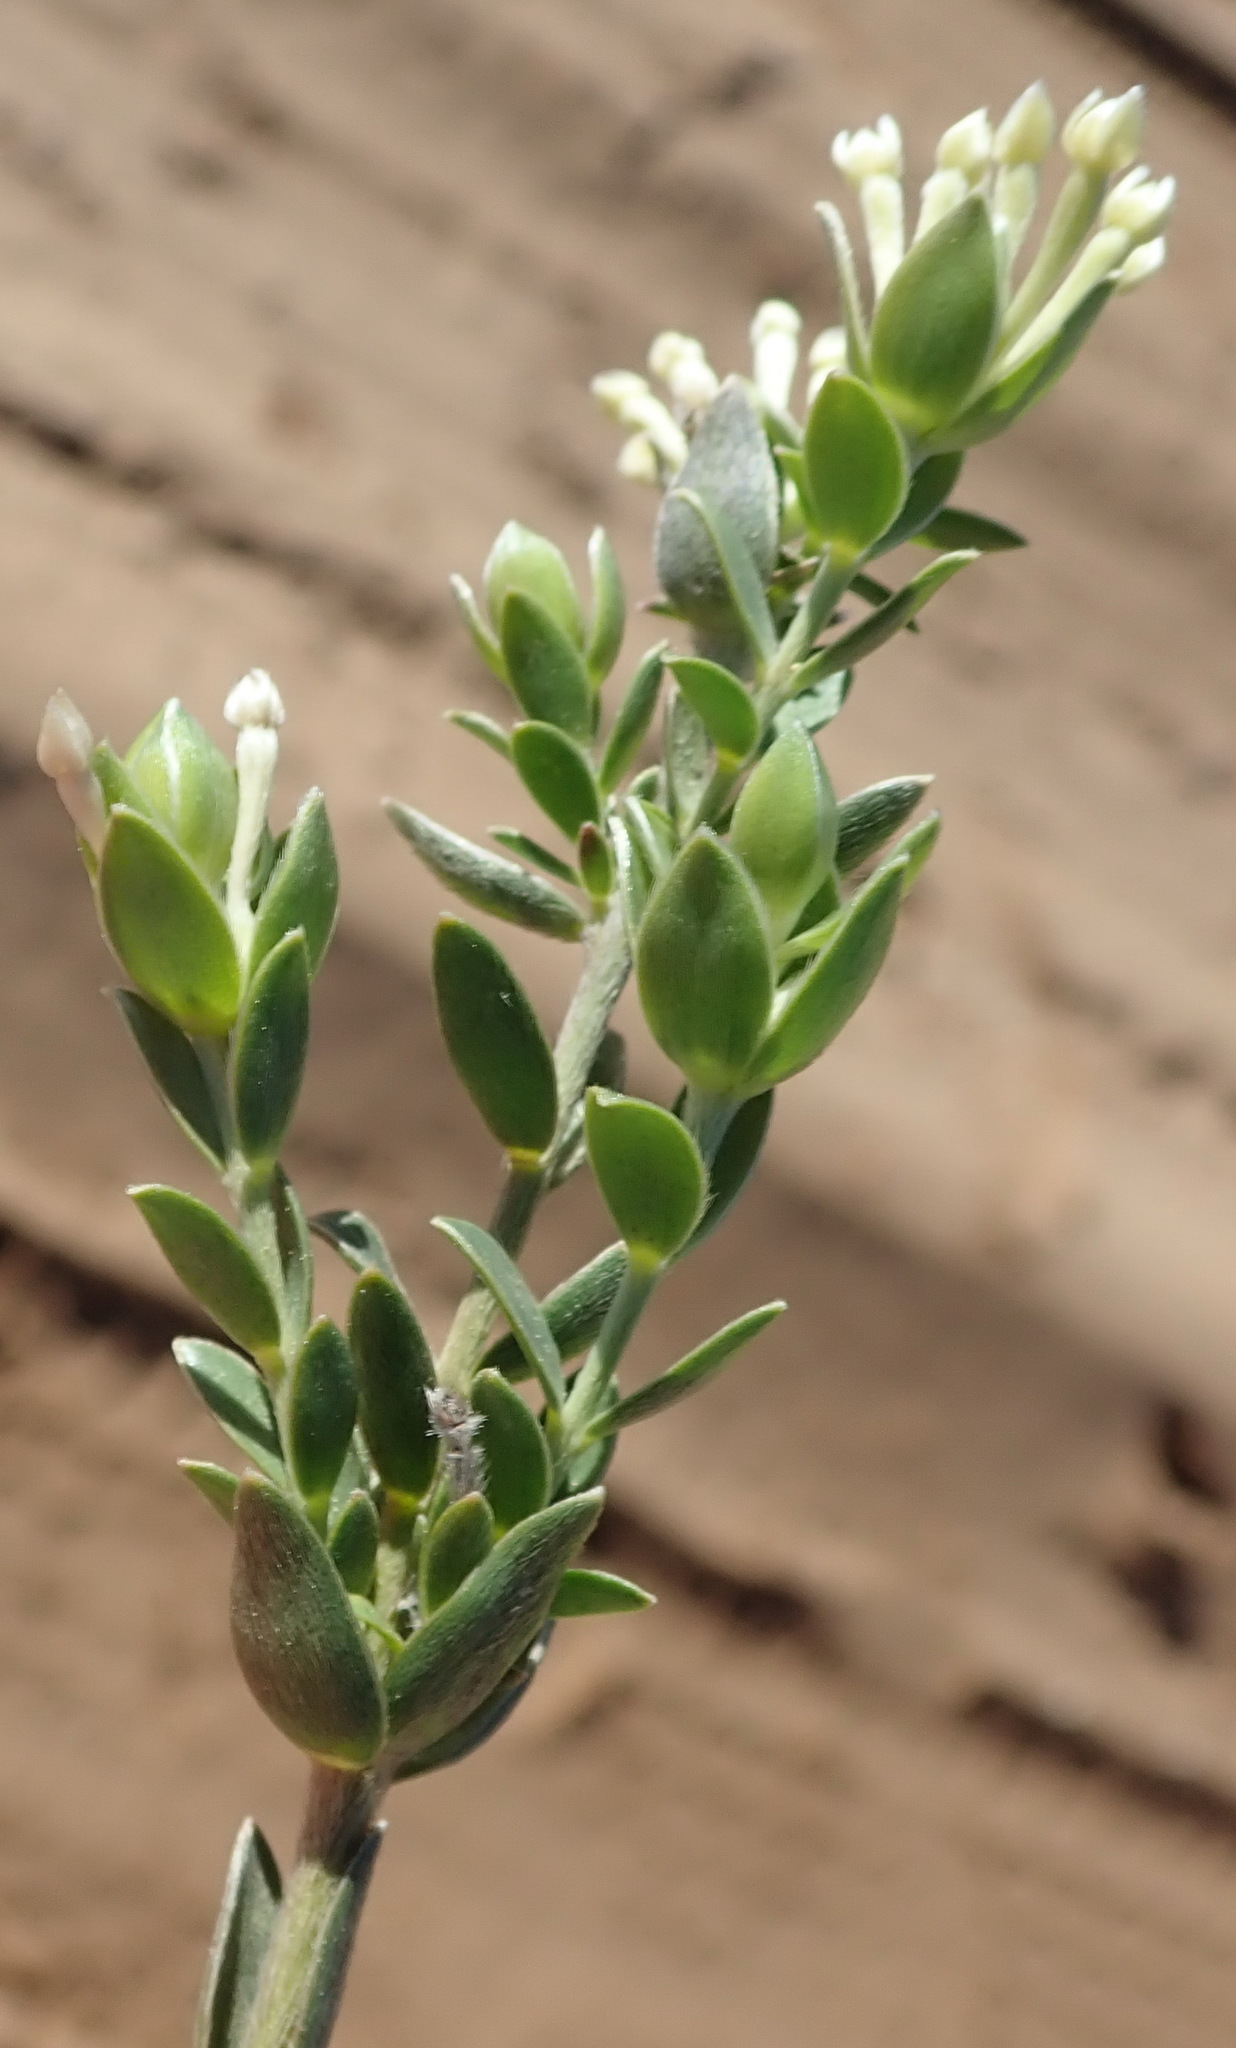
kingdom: Plantae
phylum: Tracheophyta
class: Magnoliopsida
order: Malvales
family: Thymelaeaceae
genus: Gnidia
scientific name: Gnidia sericea
